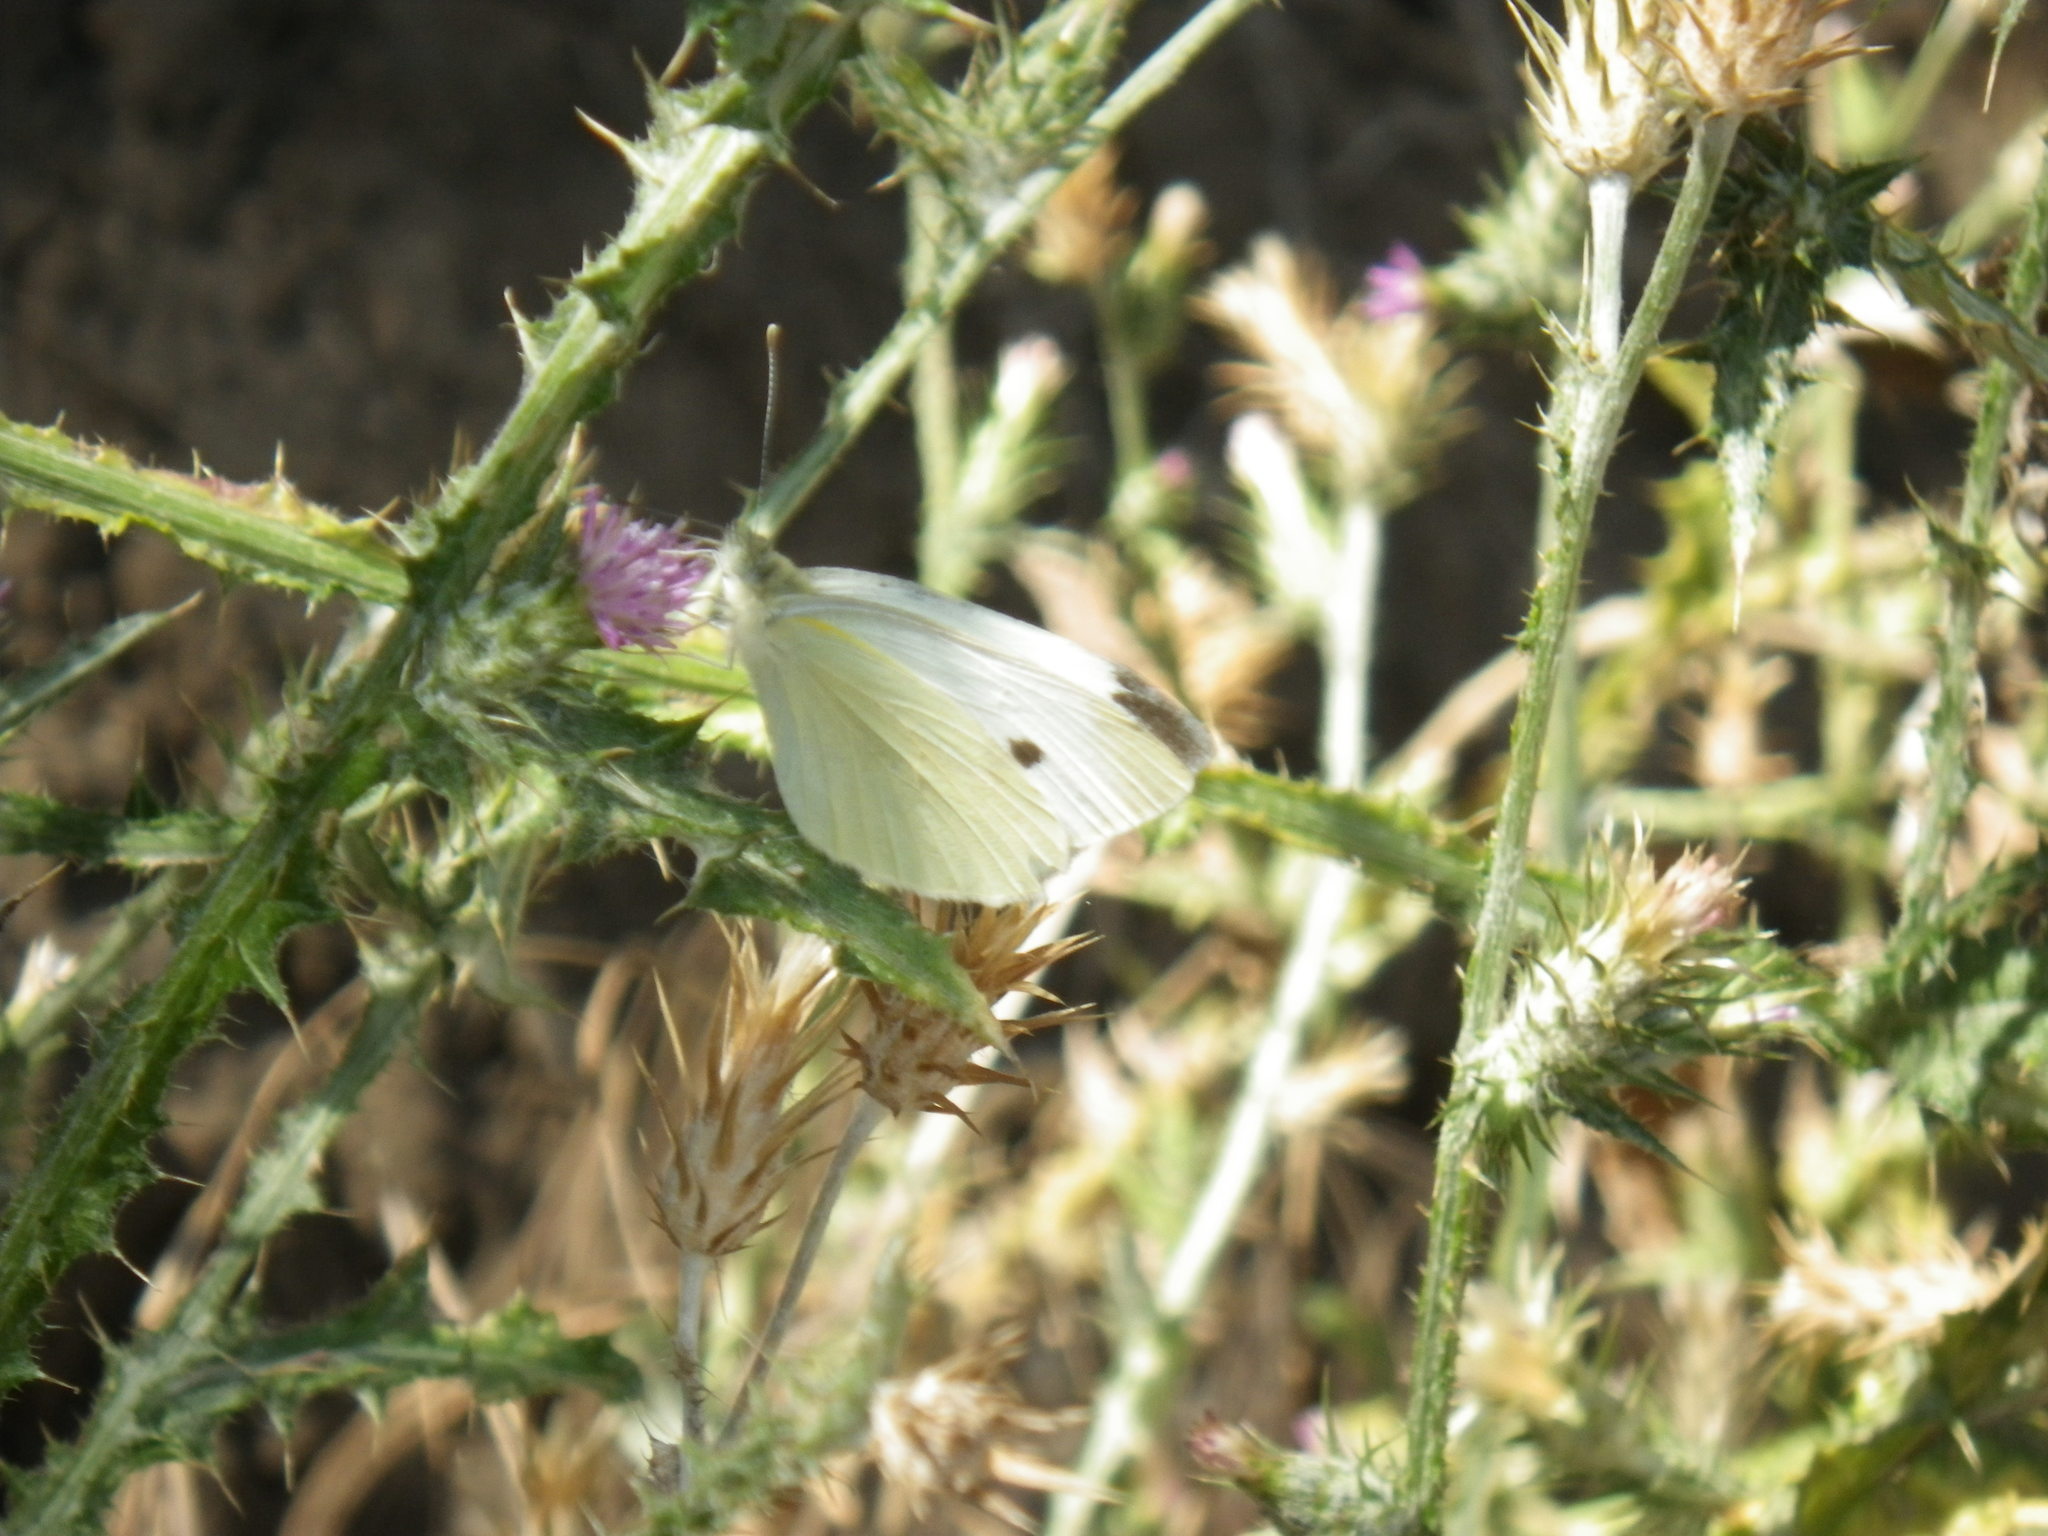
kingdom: Animalia
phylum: Arthropoda
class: Insecta
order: Lepidoptera
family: Pieridae
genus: Pieris
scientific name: Pieris rapae
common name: Small white
